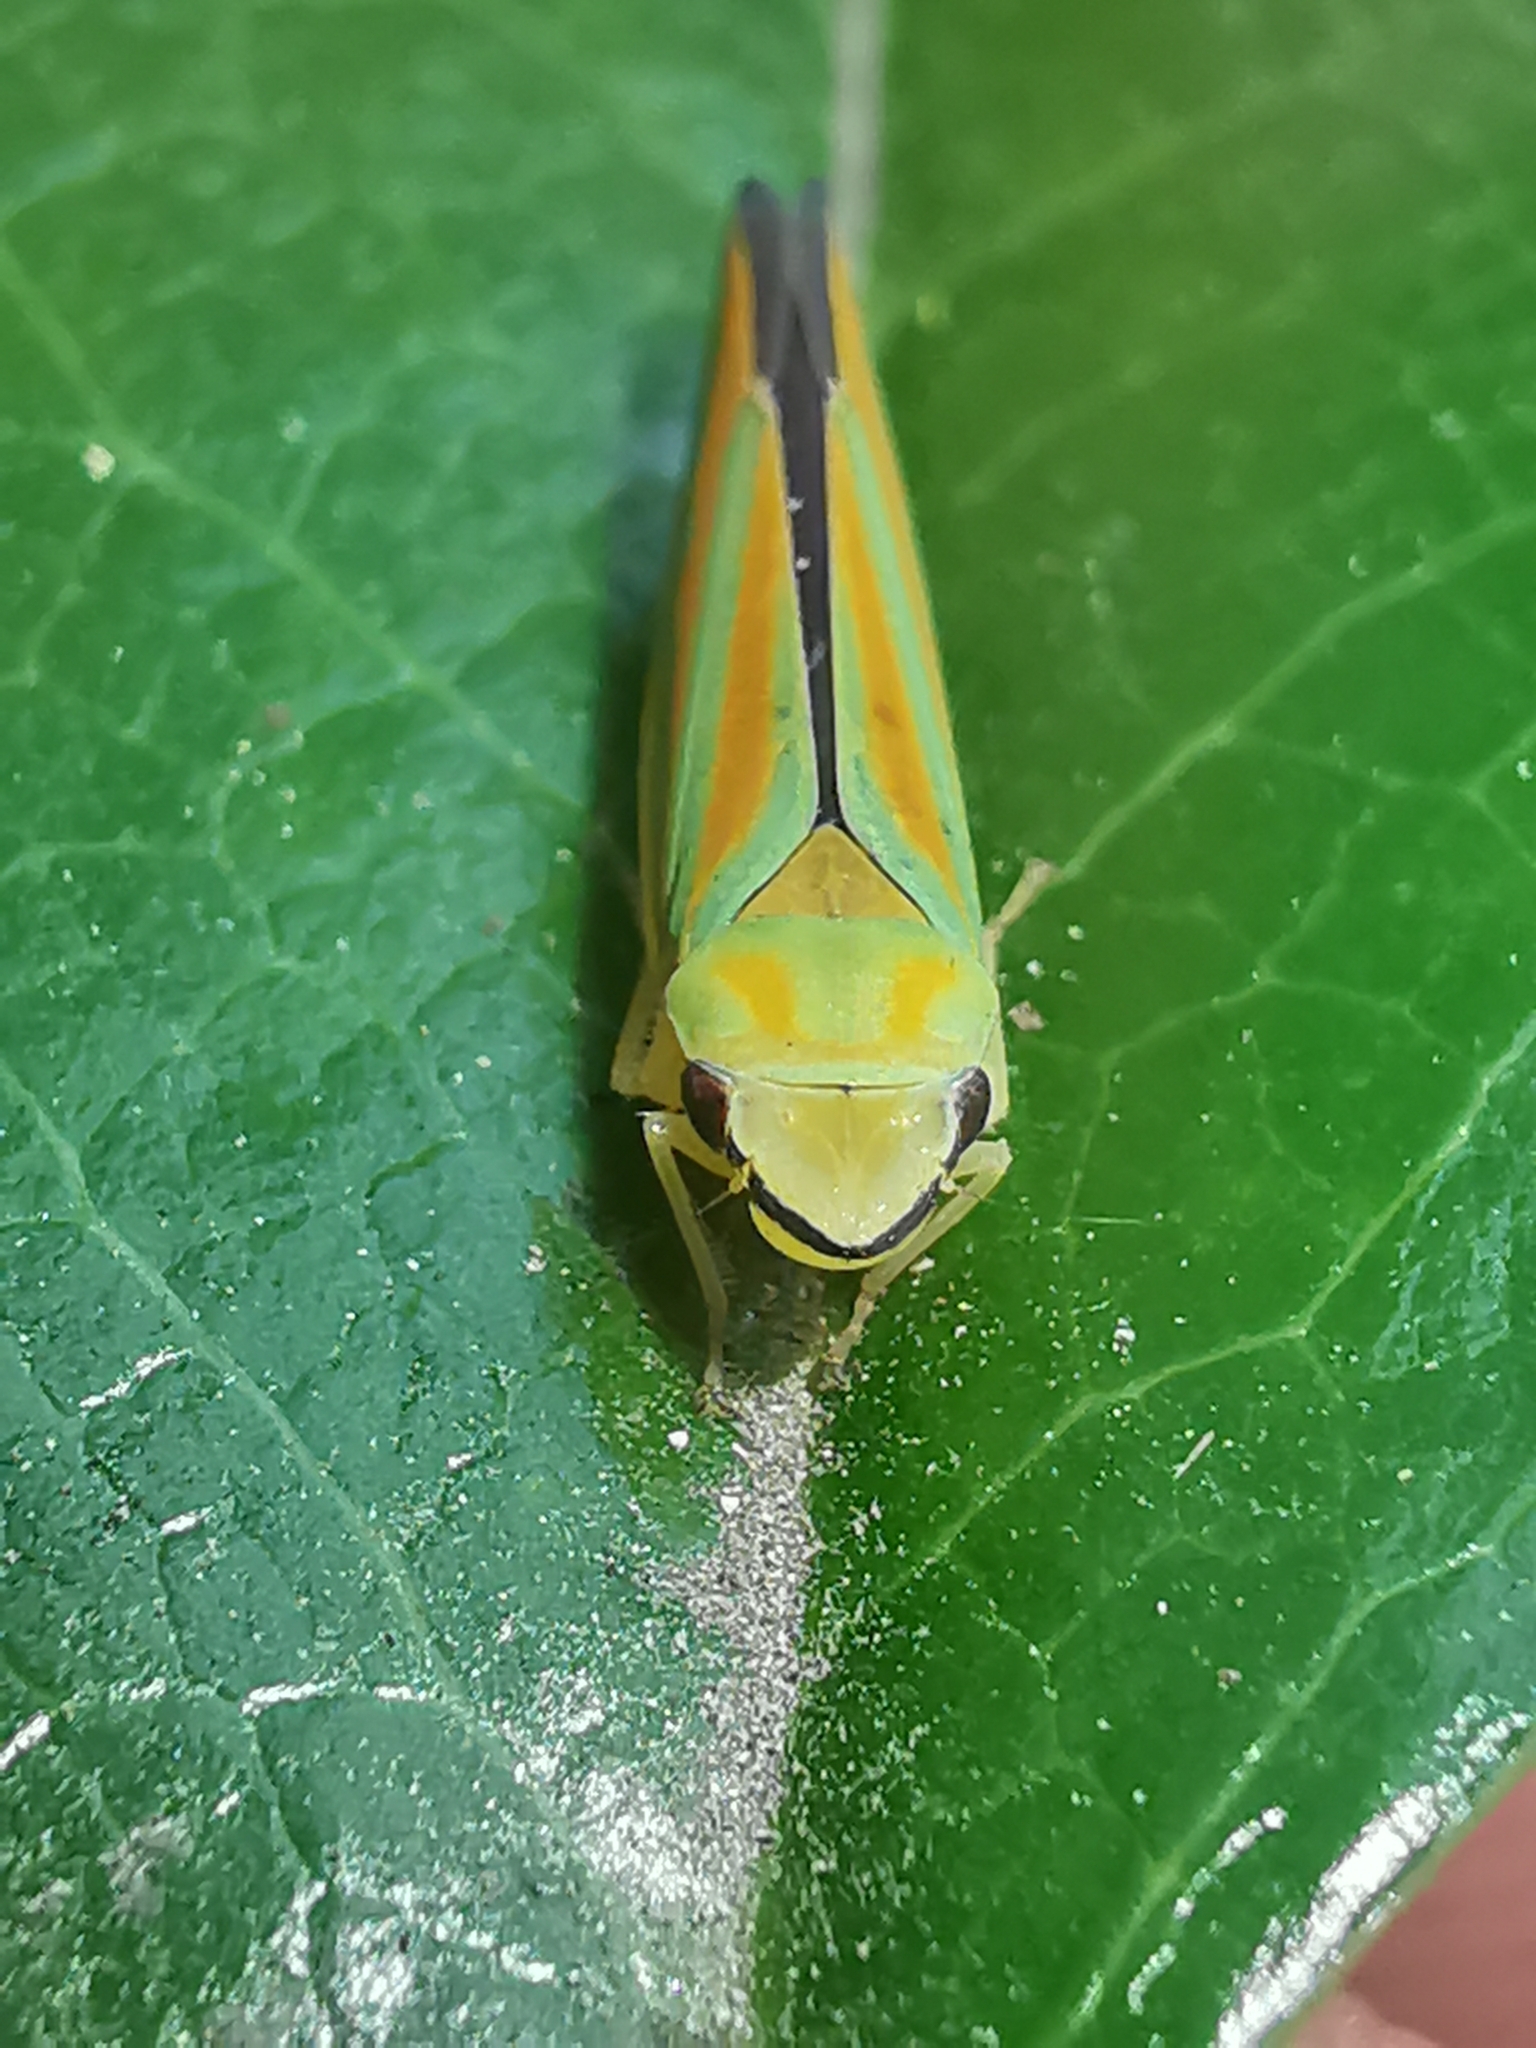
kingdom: Animalia
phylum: Arthropoda
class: Insecta
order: Hemiptera
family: Cicadellidae
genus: Graphocephala
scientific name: Graphocephala fennahi
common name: Rhododendron leafhopper
